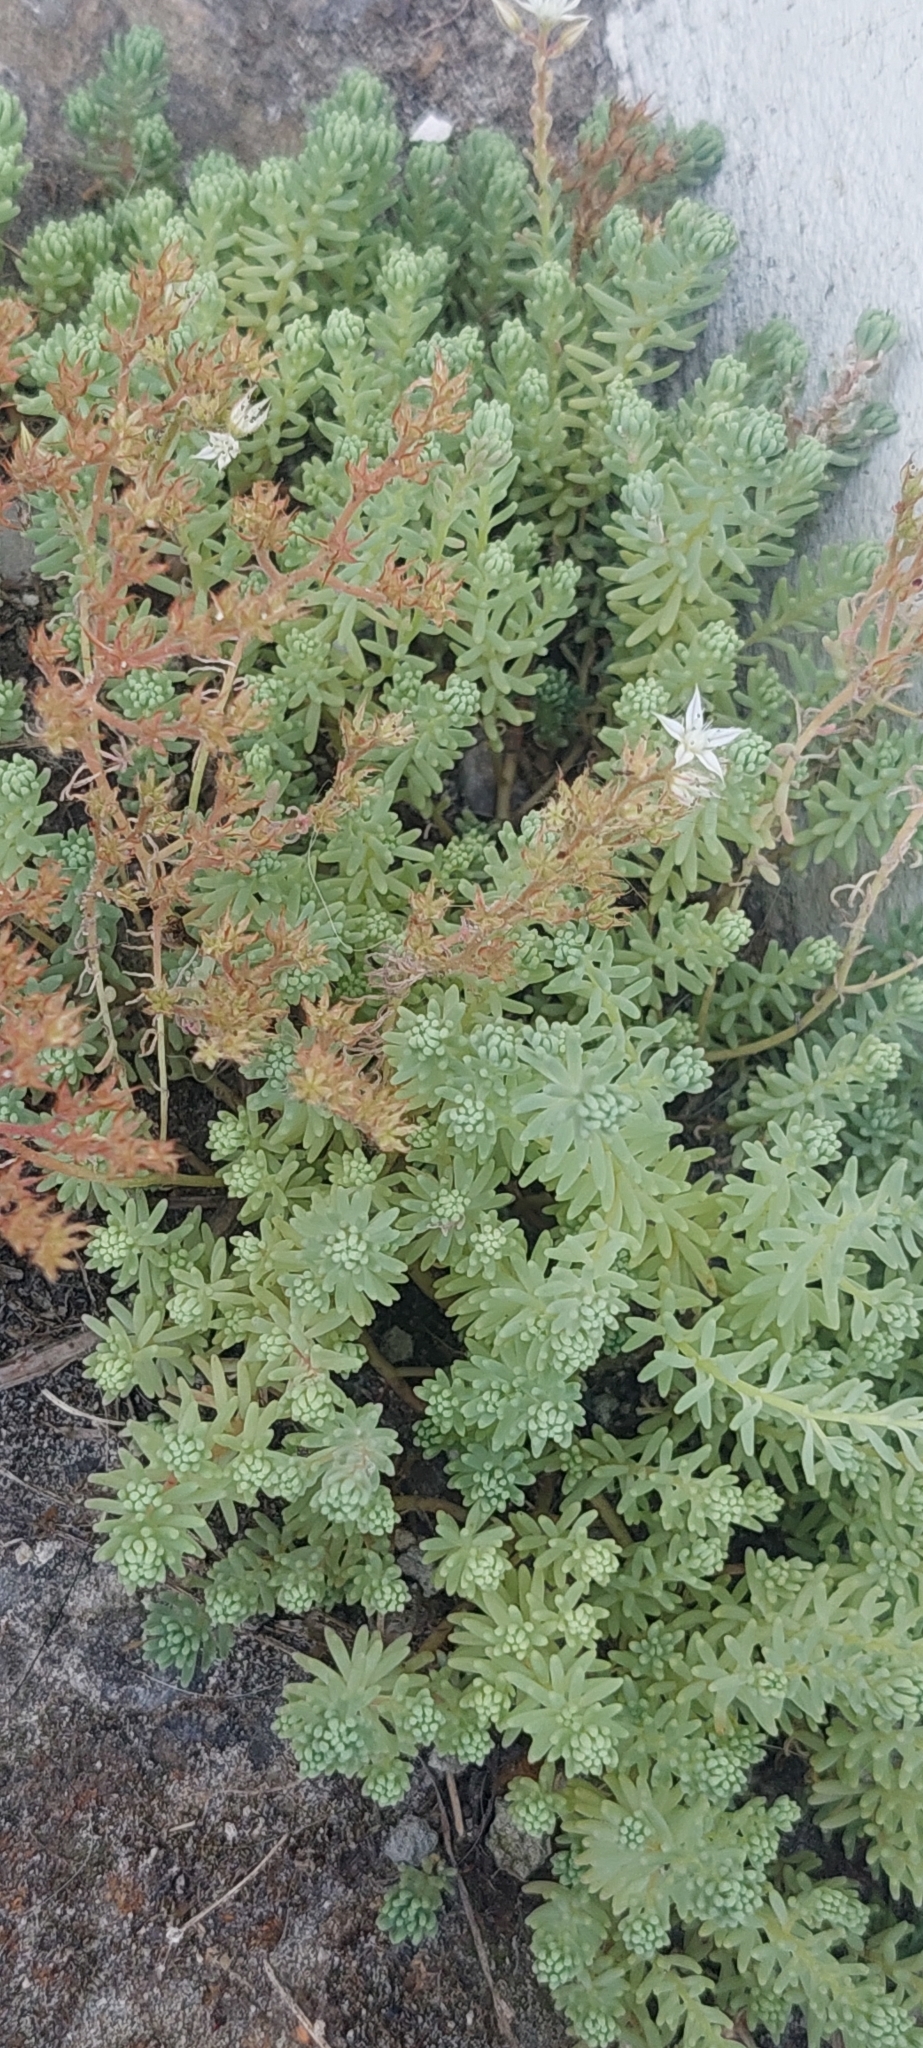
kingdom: Plantae
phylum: Tracheophyta
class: Magnoliopsida
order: Saxifragales
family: Crassulaceae
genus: Sedum
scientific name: Sedum pallidum
